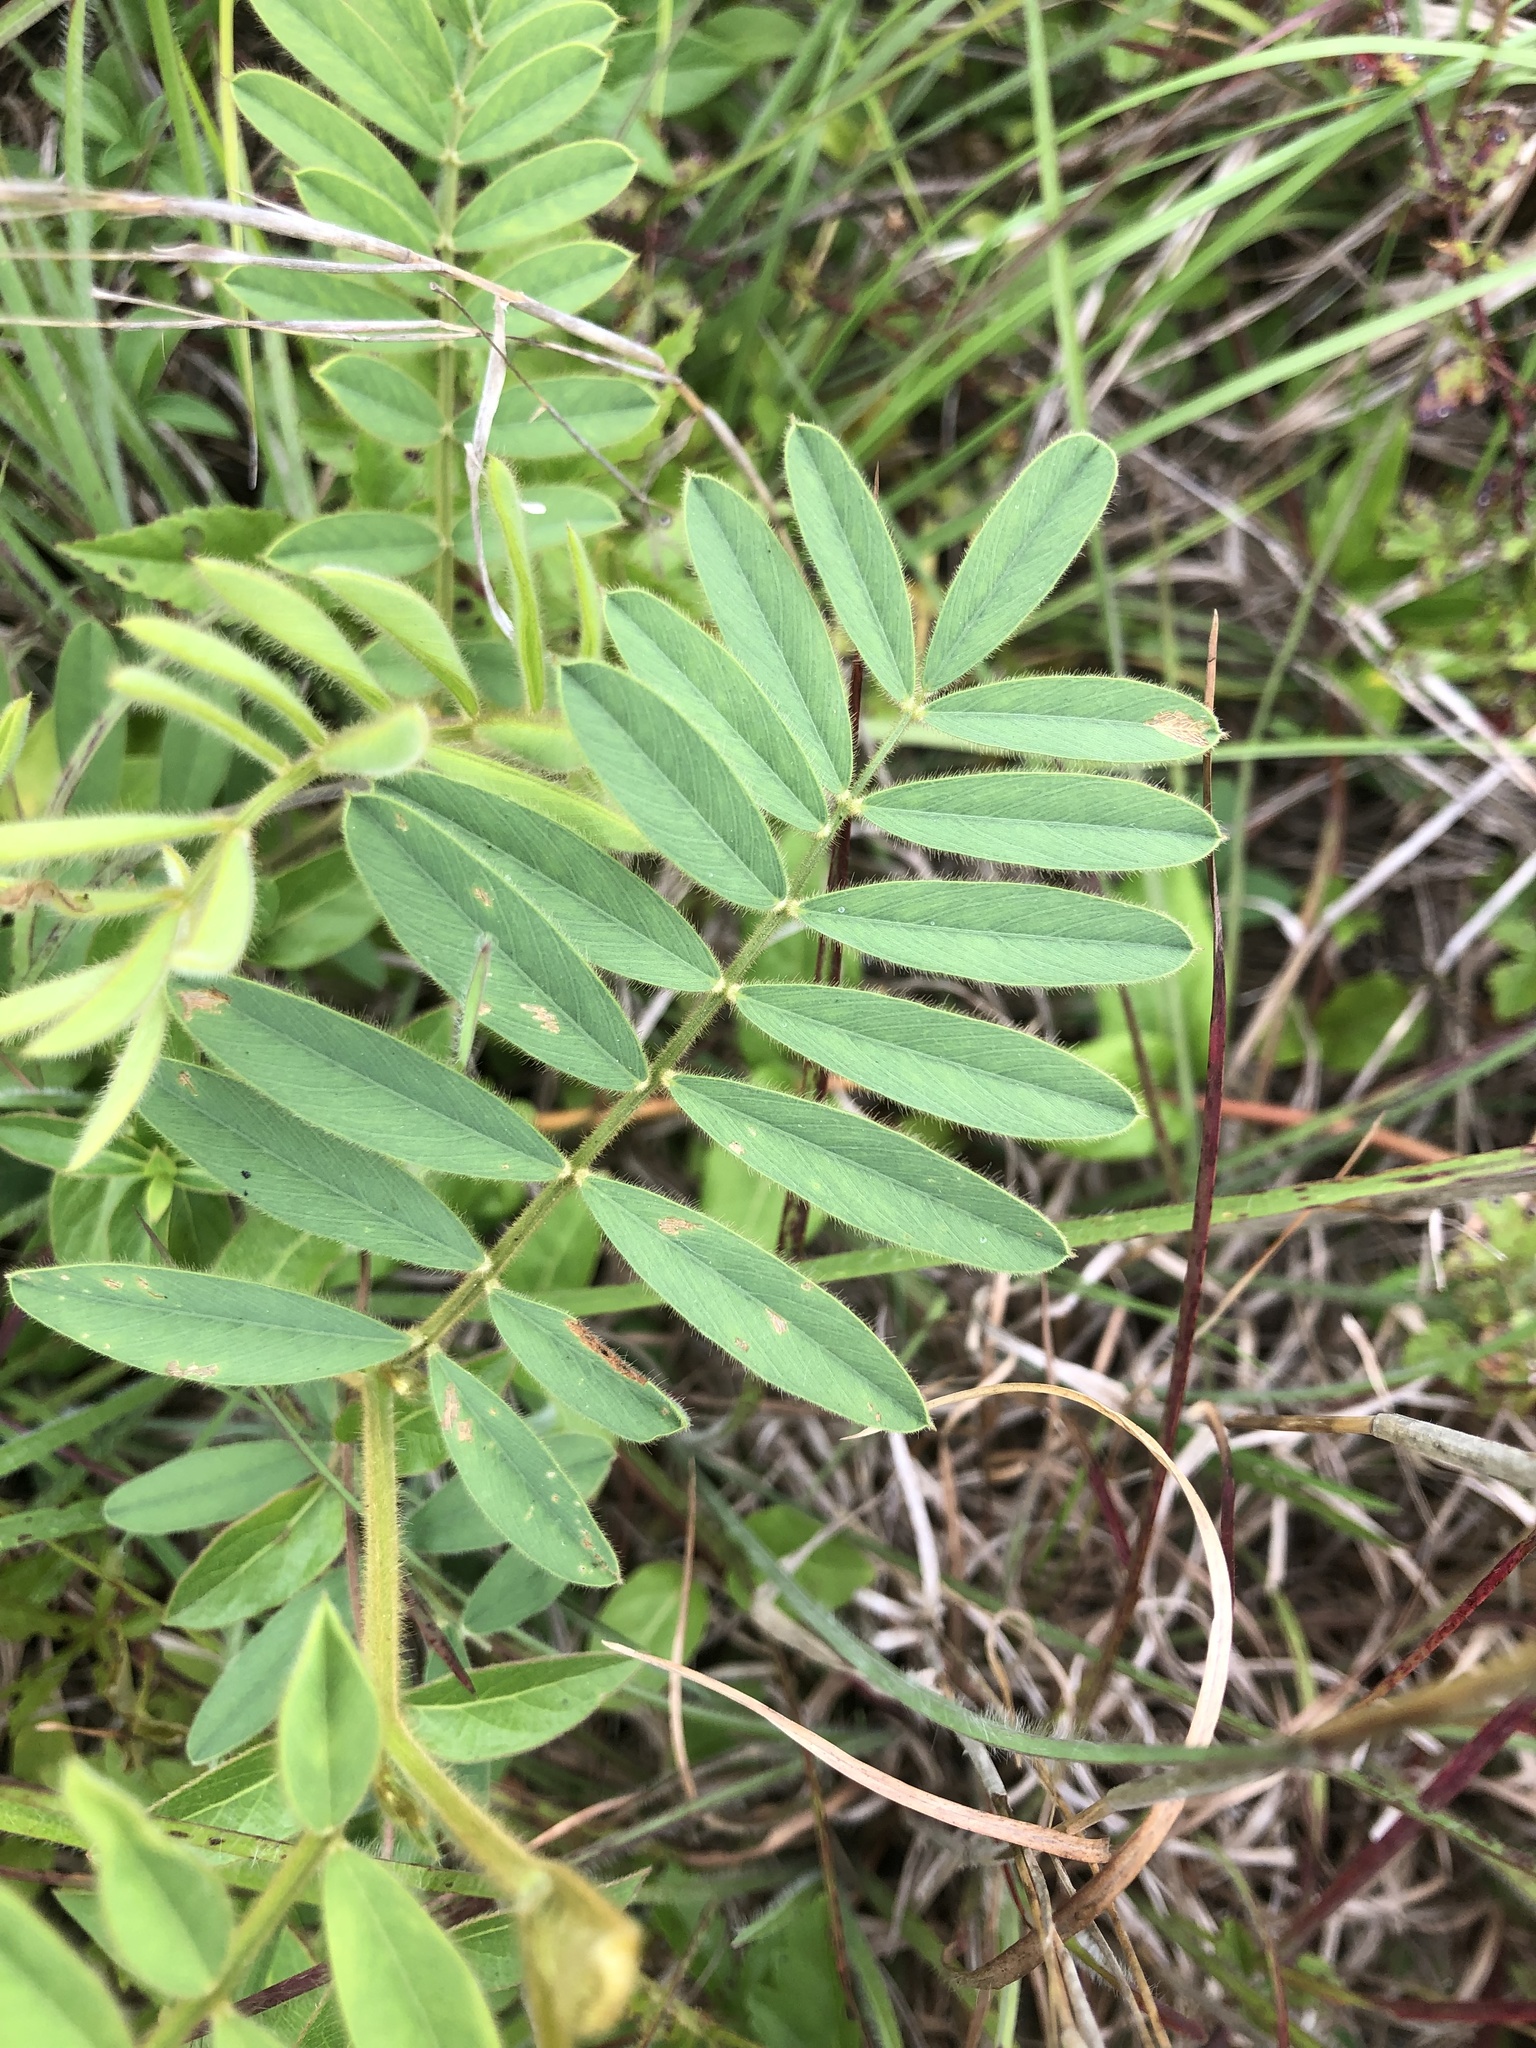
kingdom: Plantae
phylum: Tracheophyta
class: Magnoliopsida
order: Fabales
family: Fabaceae
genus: Tephrosia
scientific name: Tephrosia onobrychoides
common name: Multi-bloom hoary-pea
